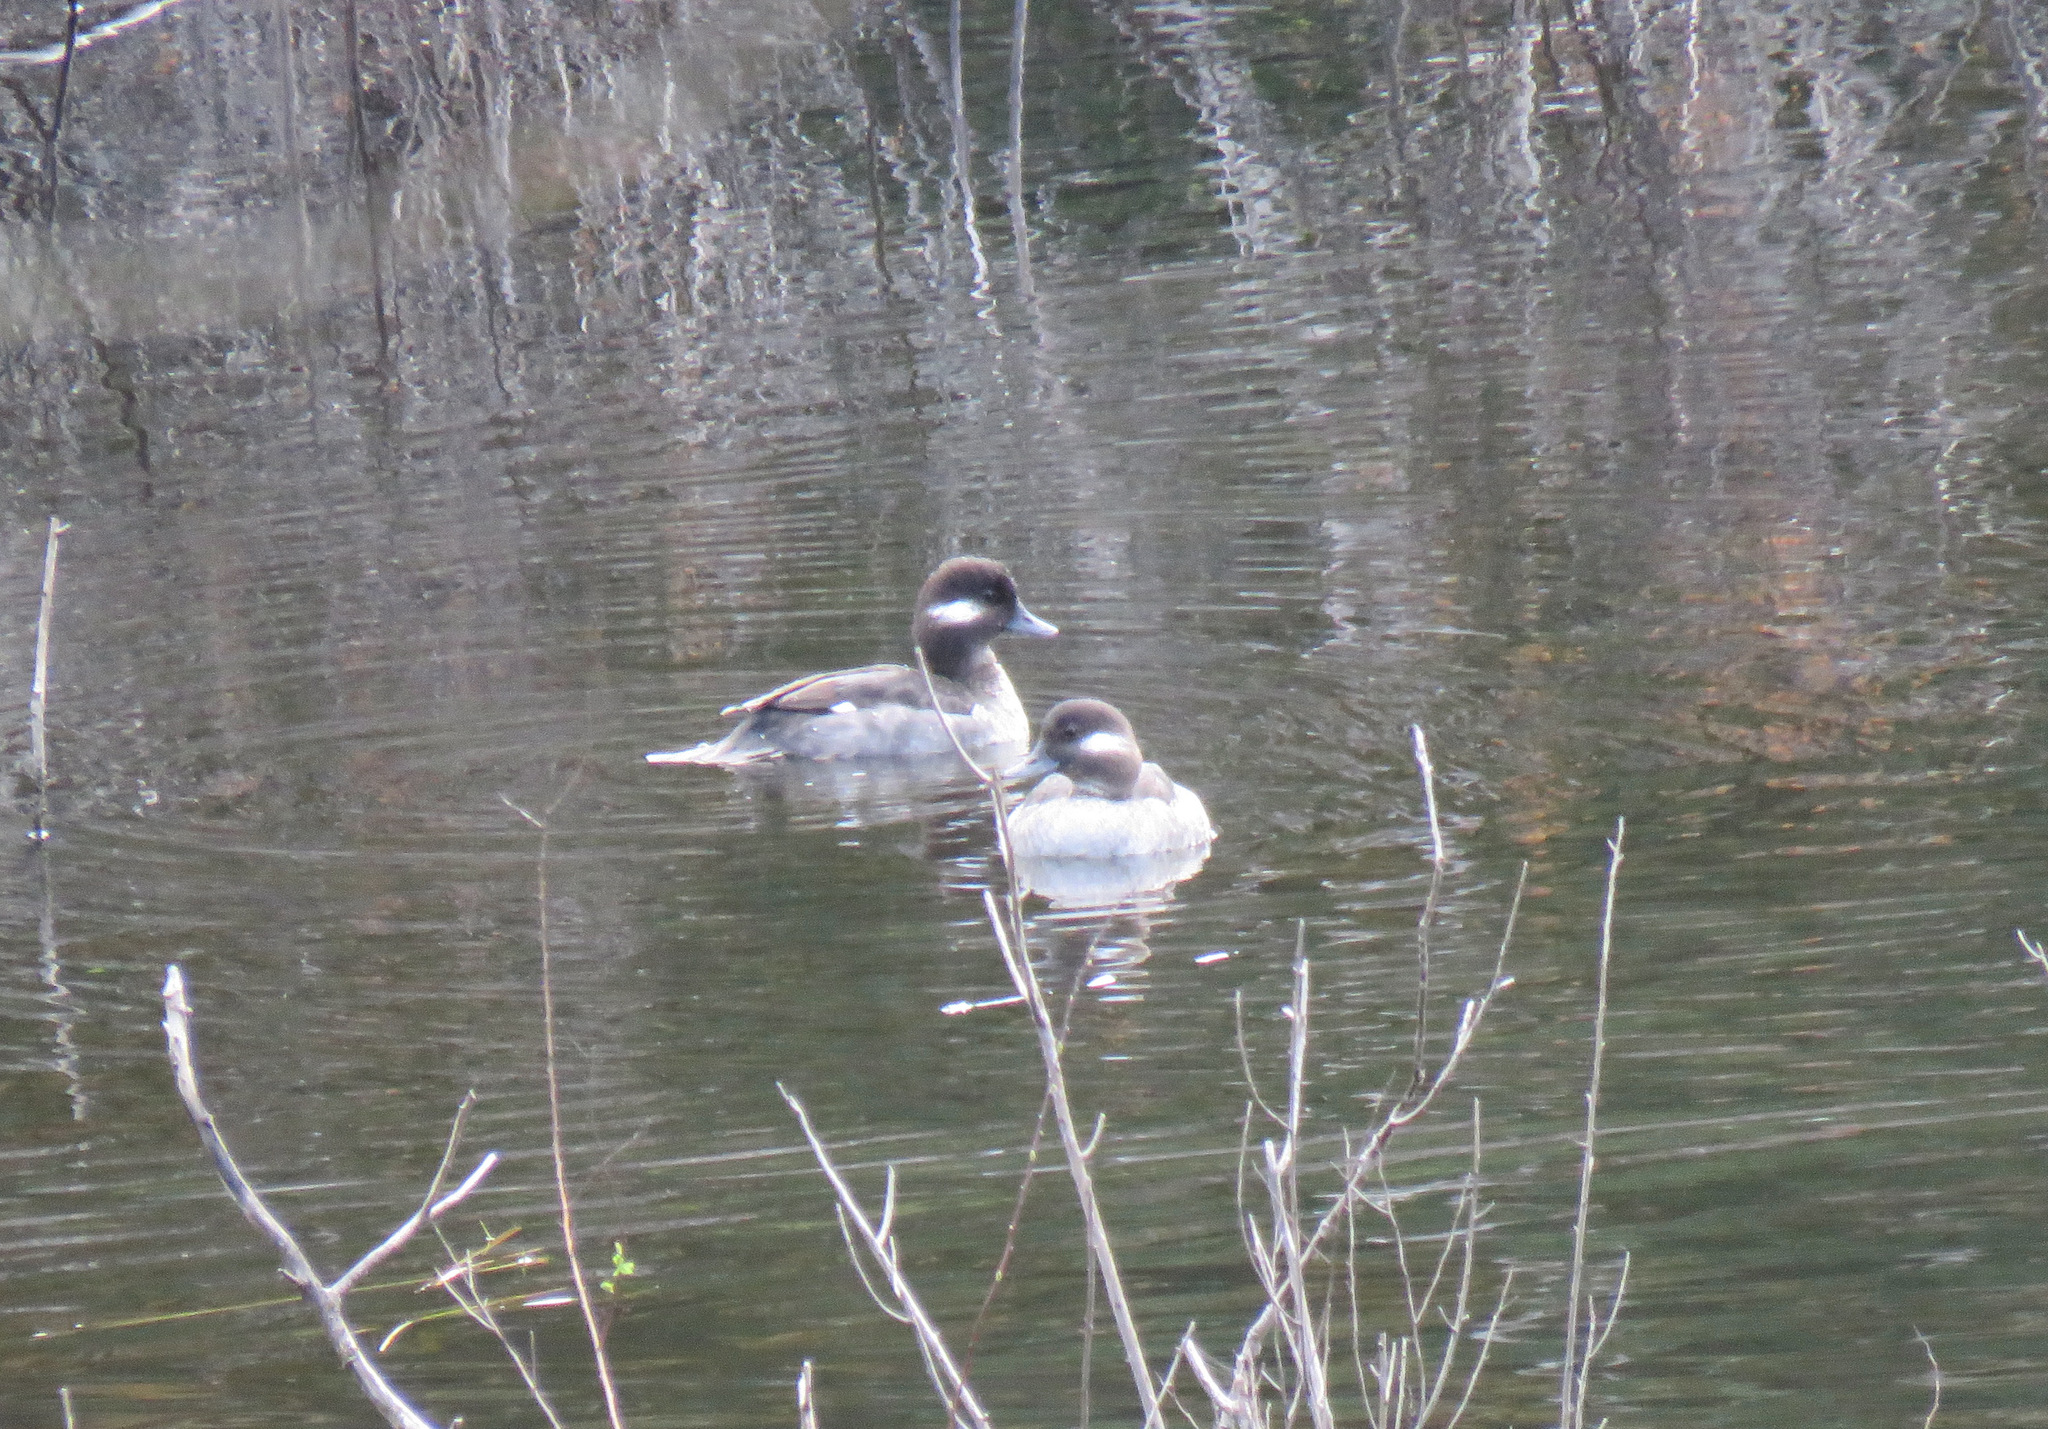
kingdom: Animalia
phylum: Chordata
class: Aves
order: Anseriformes
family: Anatidae
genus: Bucephala
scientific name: Bucephala albeola
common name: Bufflehead
